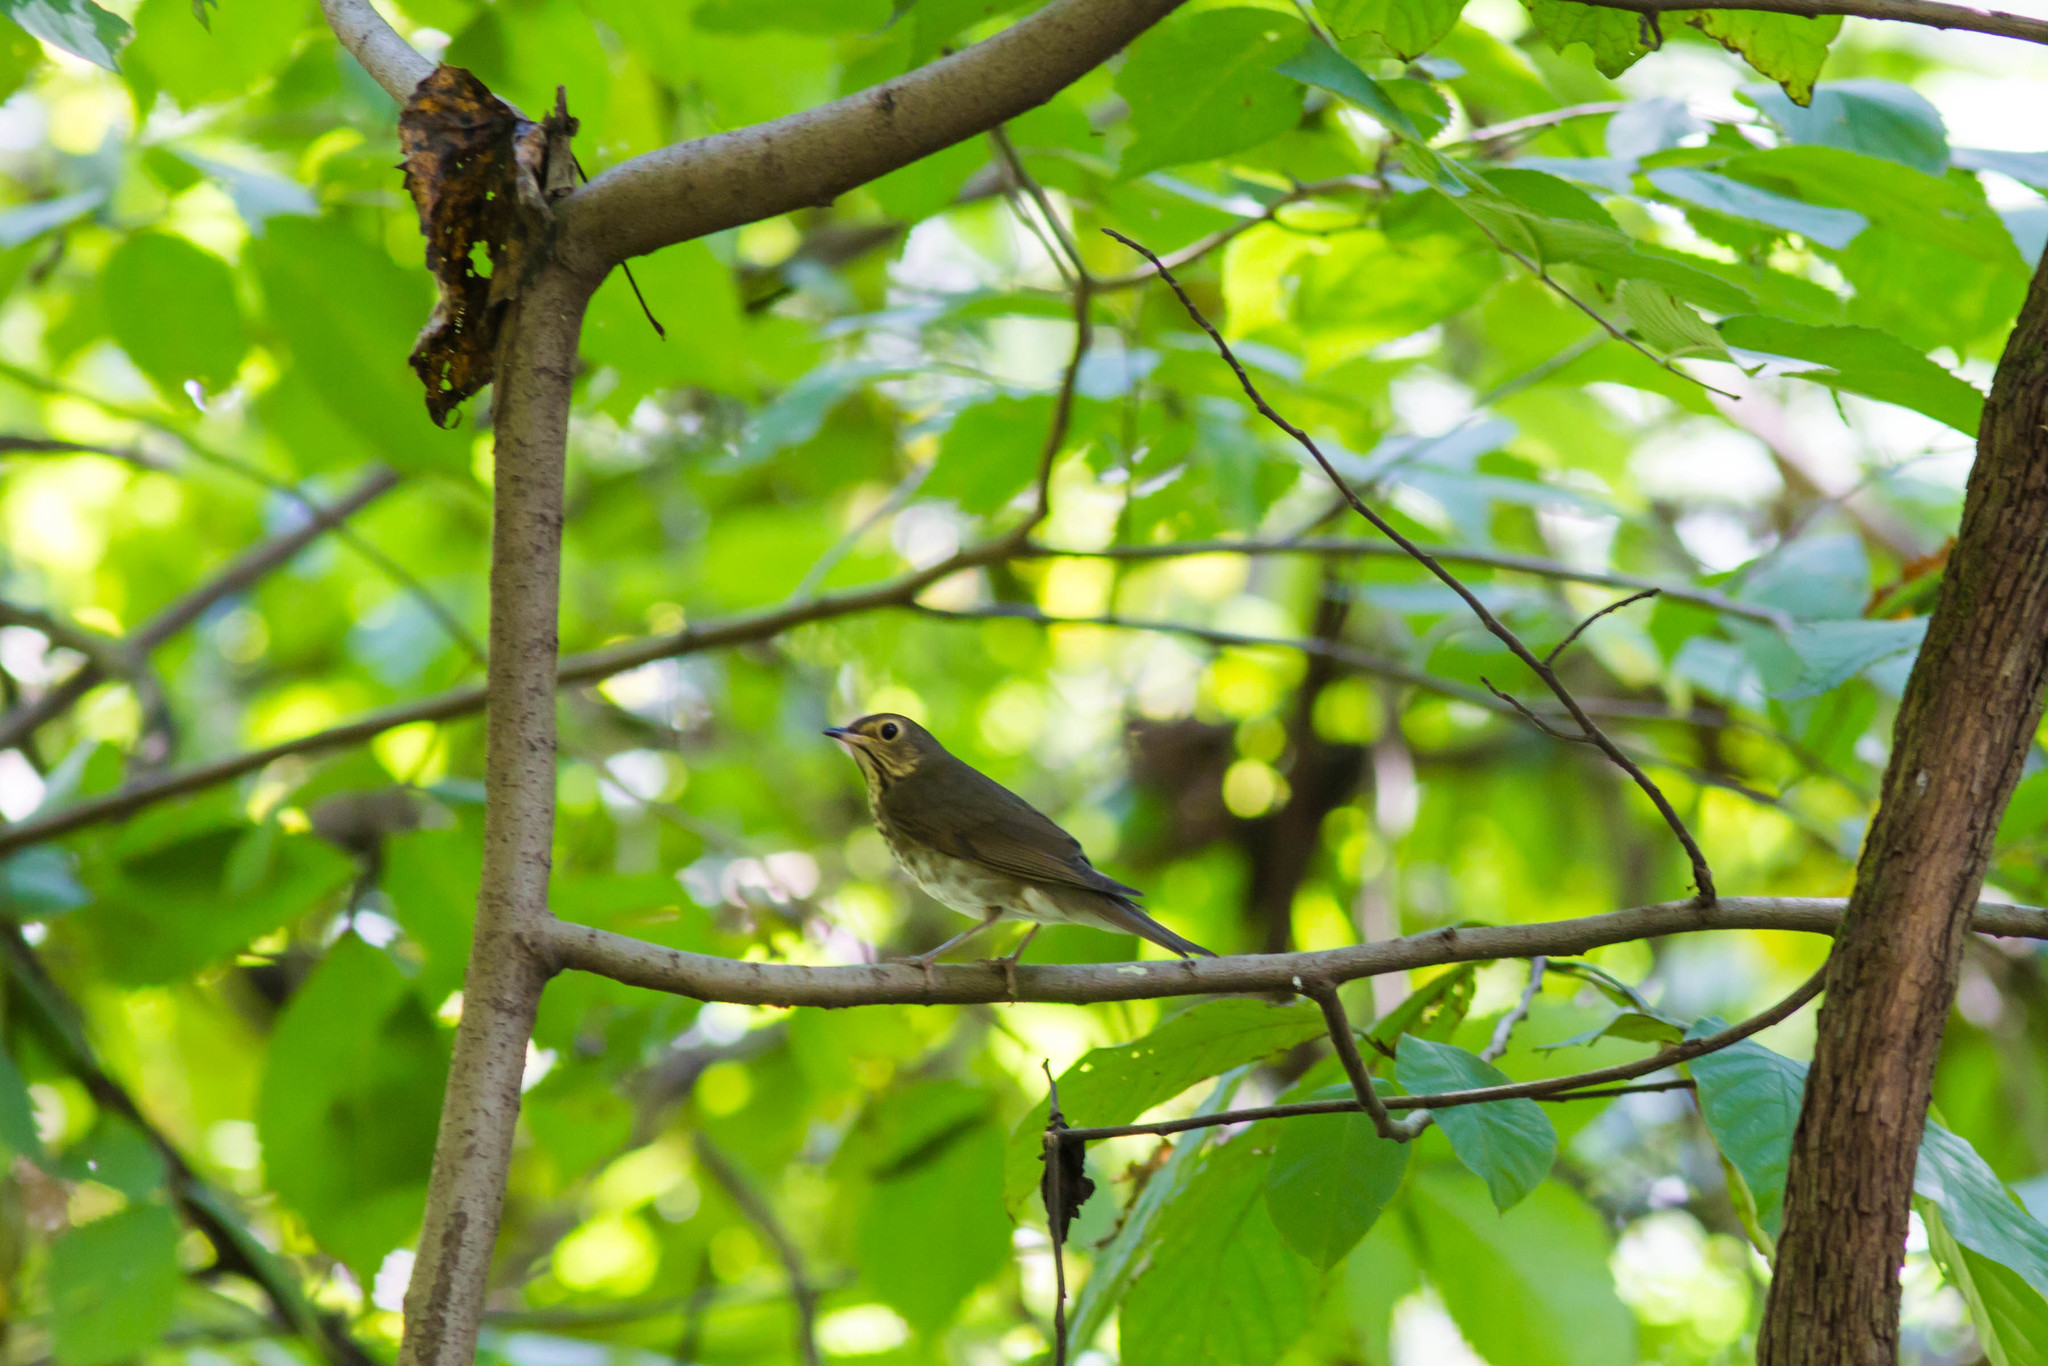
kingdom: Animalia
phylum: Chordata
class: Aves
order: Passeriformes
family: Turdidae
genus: Catharus
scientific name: Catharus ustulatus
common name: Swainson's thrush
